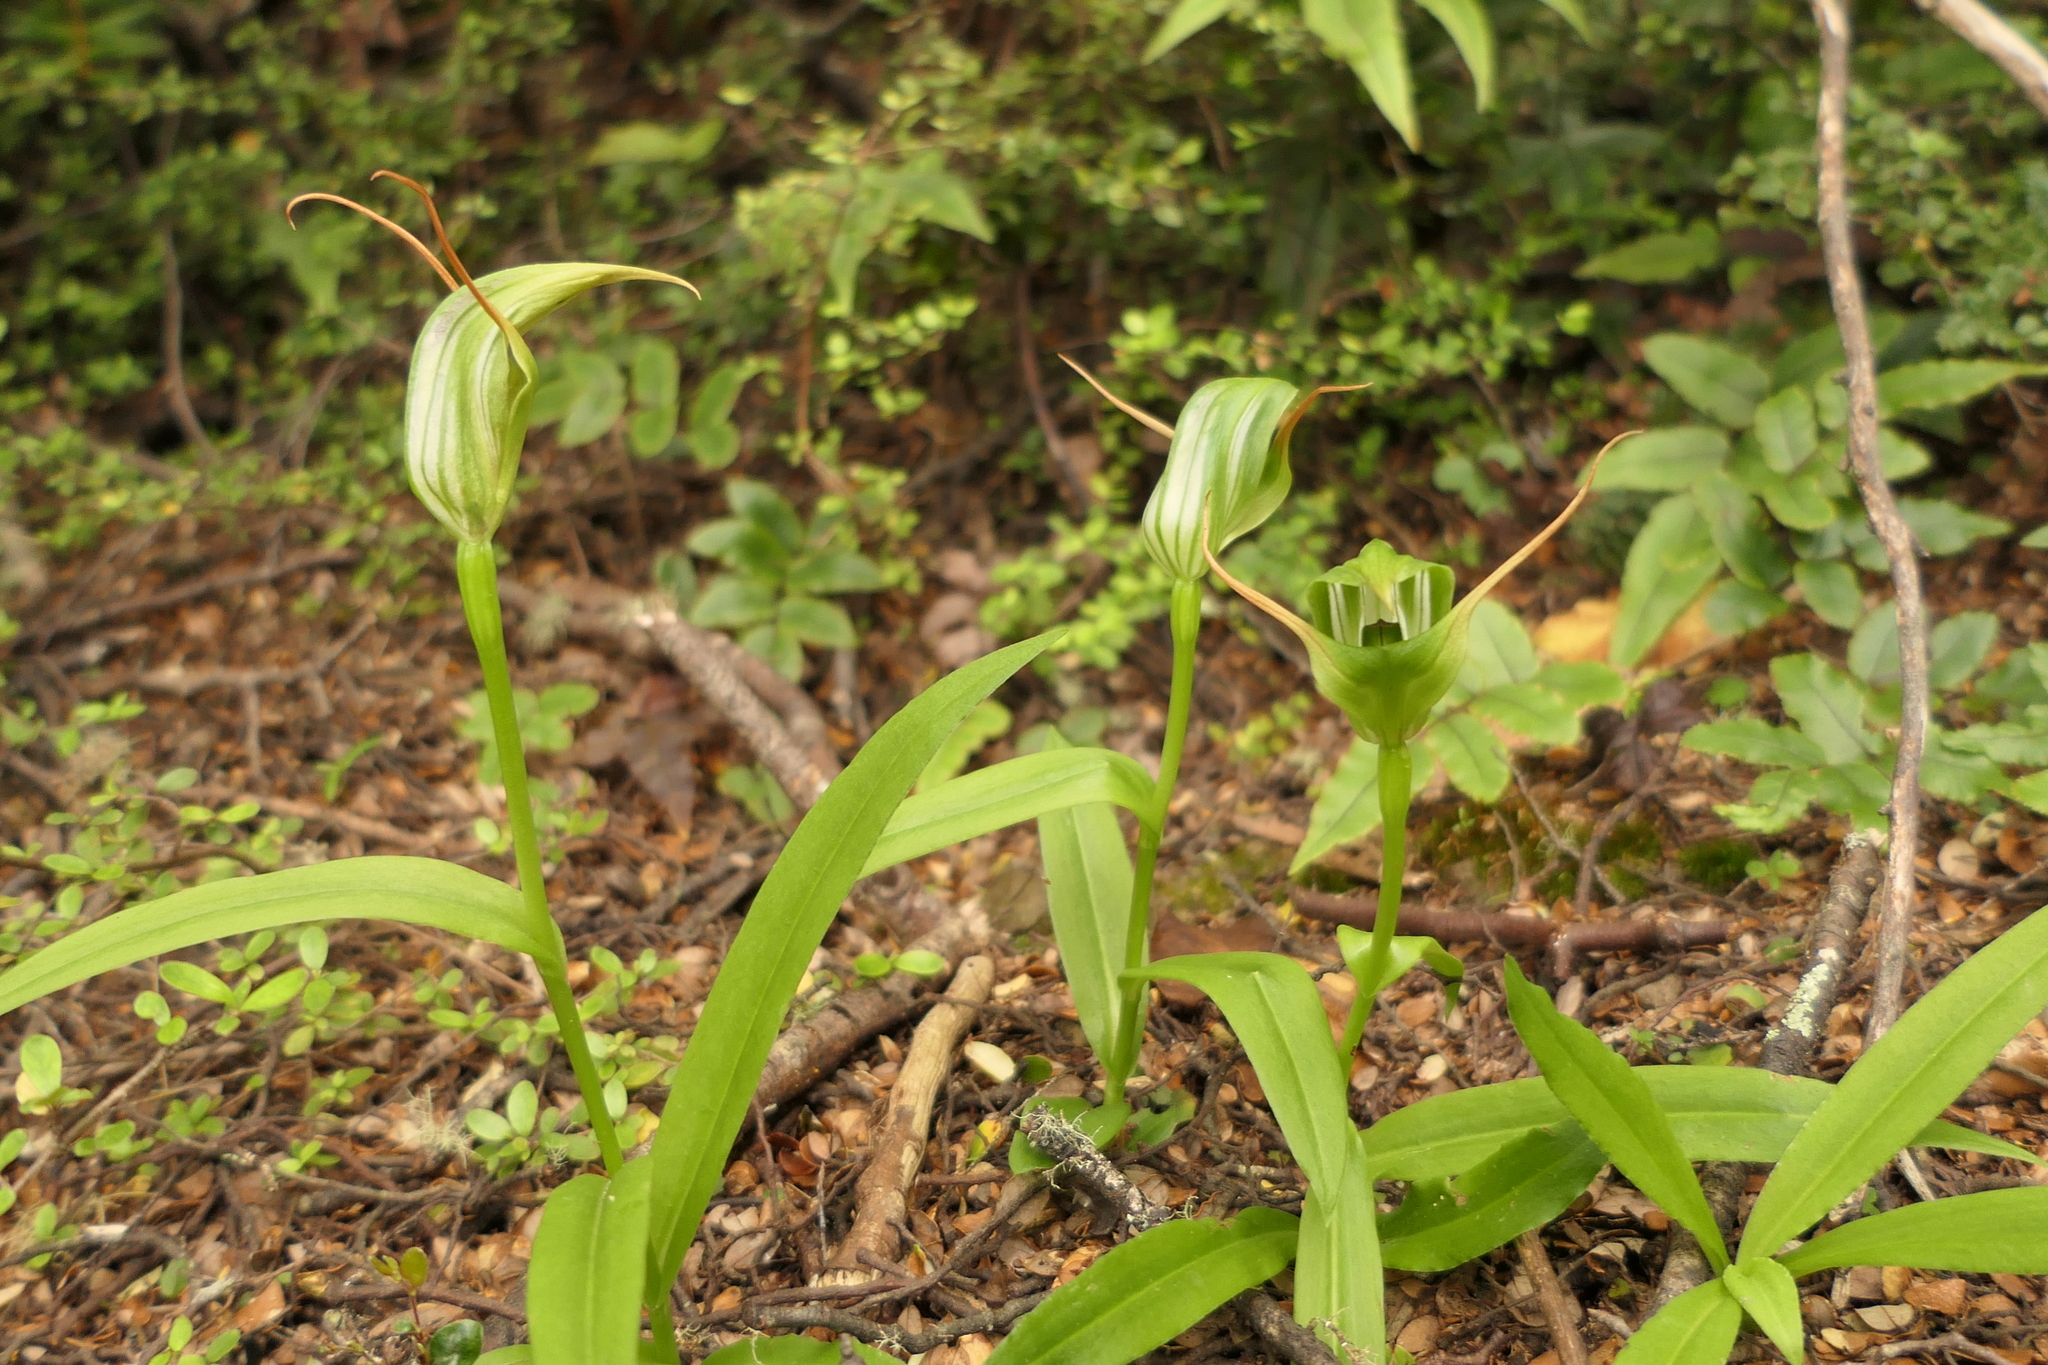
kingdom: Plantae
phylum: Tracheophyta
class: Liliopsida
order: Asparagales
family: Orchidaceae
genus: Pterostylis
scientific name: Pterostylis australis
